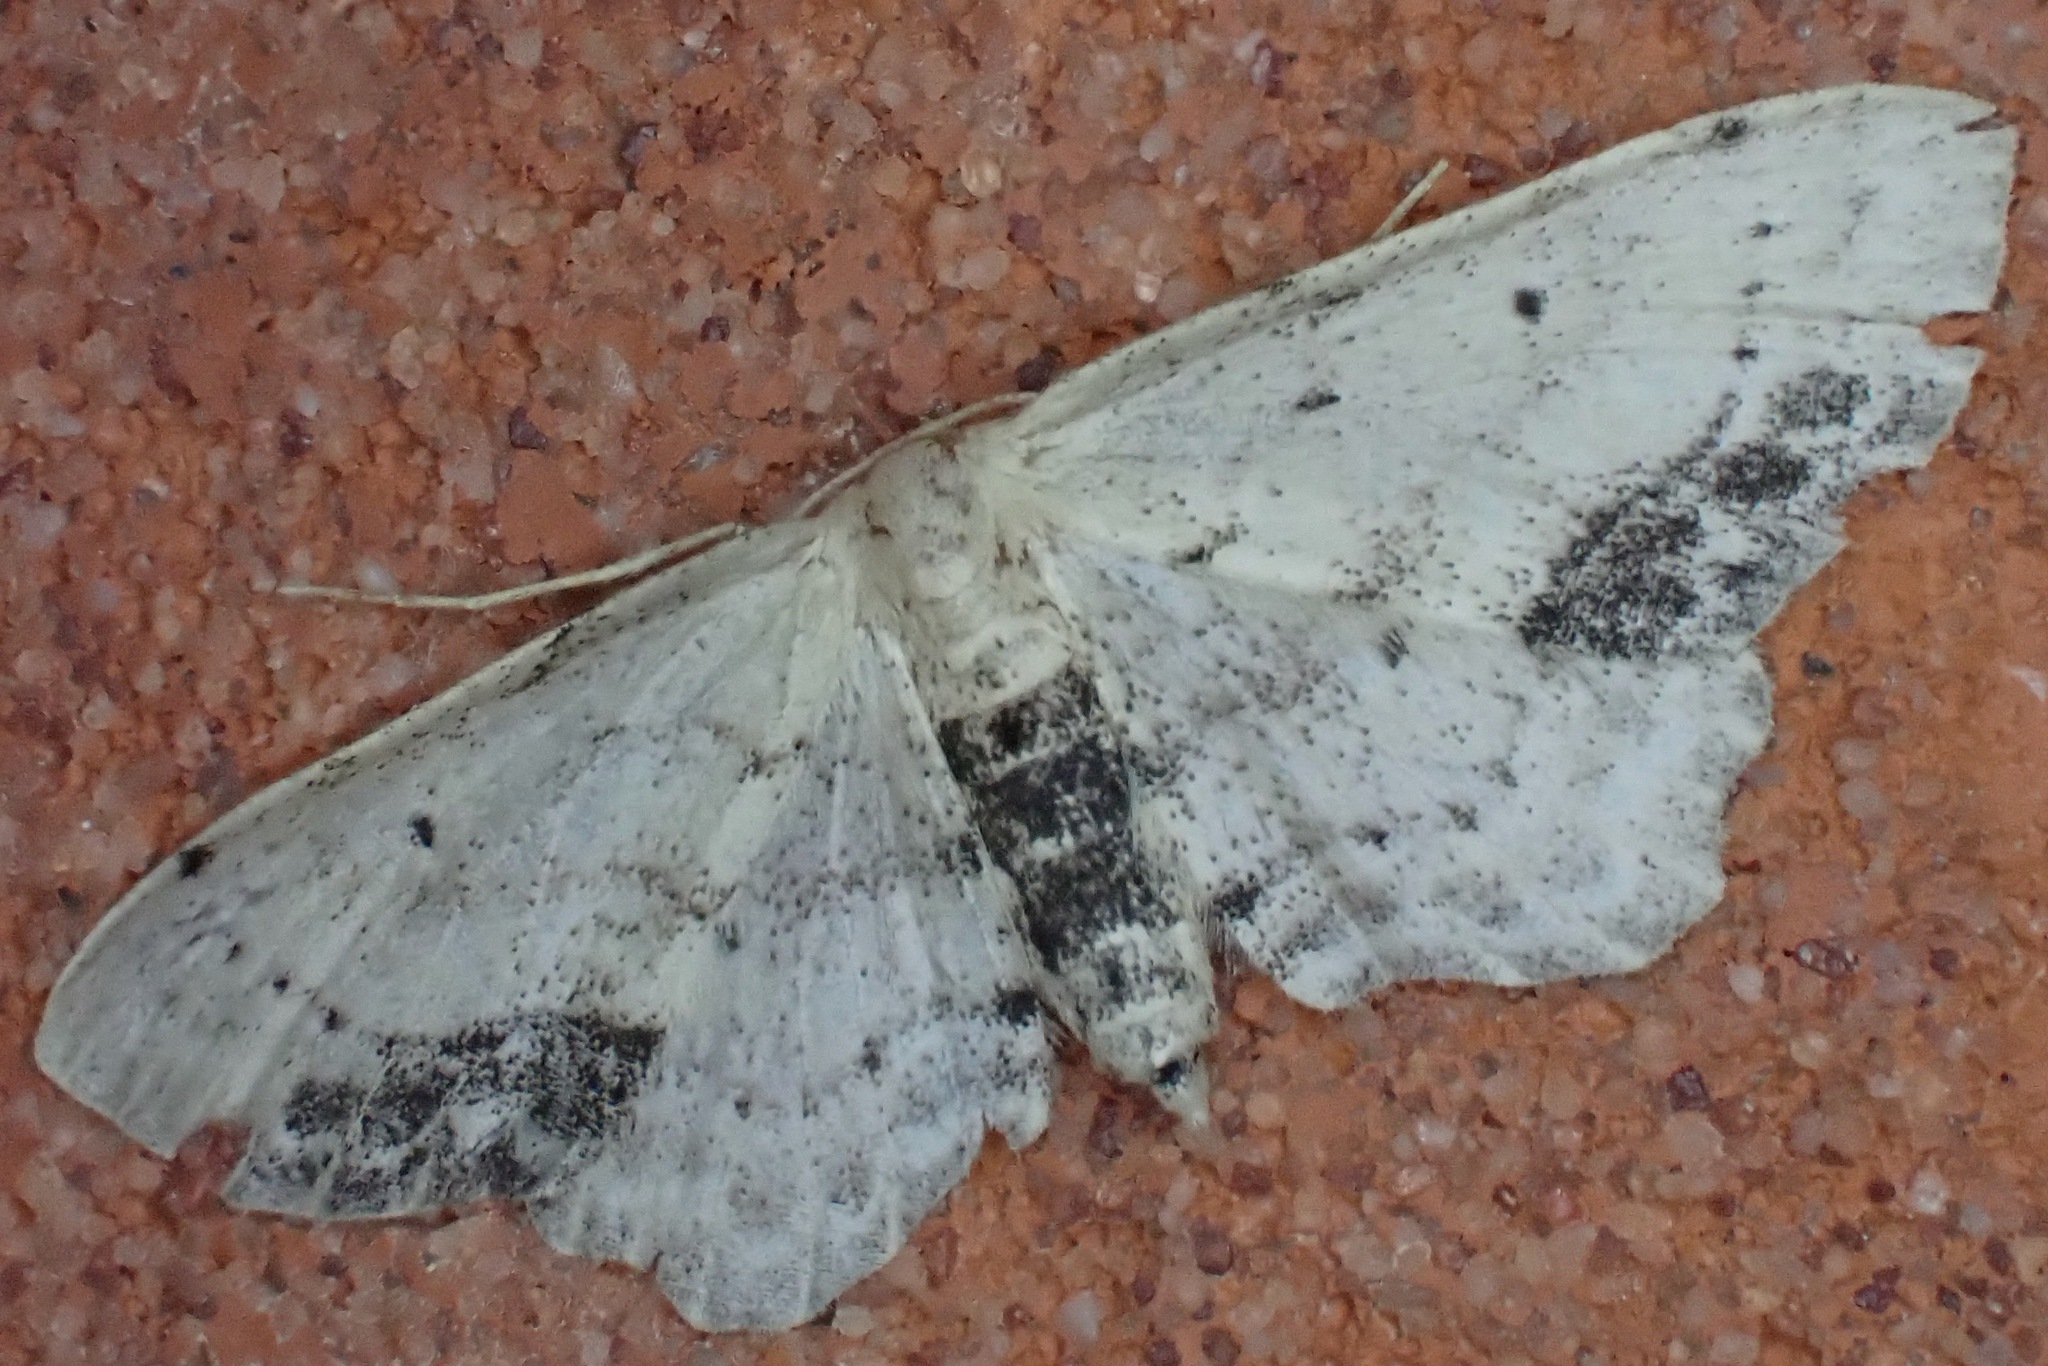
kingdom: Animalia
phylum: Arthropoda
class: Insecta
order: Lepidoptera
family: Geometridae
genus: Idaea
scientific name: Idaea dimidiata
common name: Single-dotted wave
